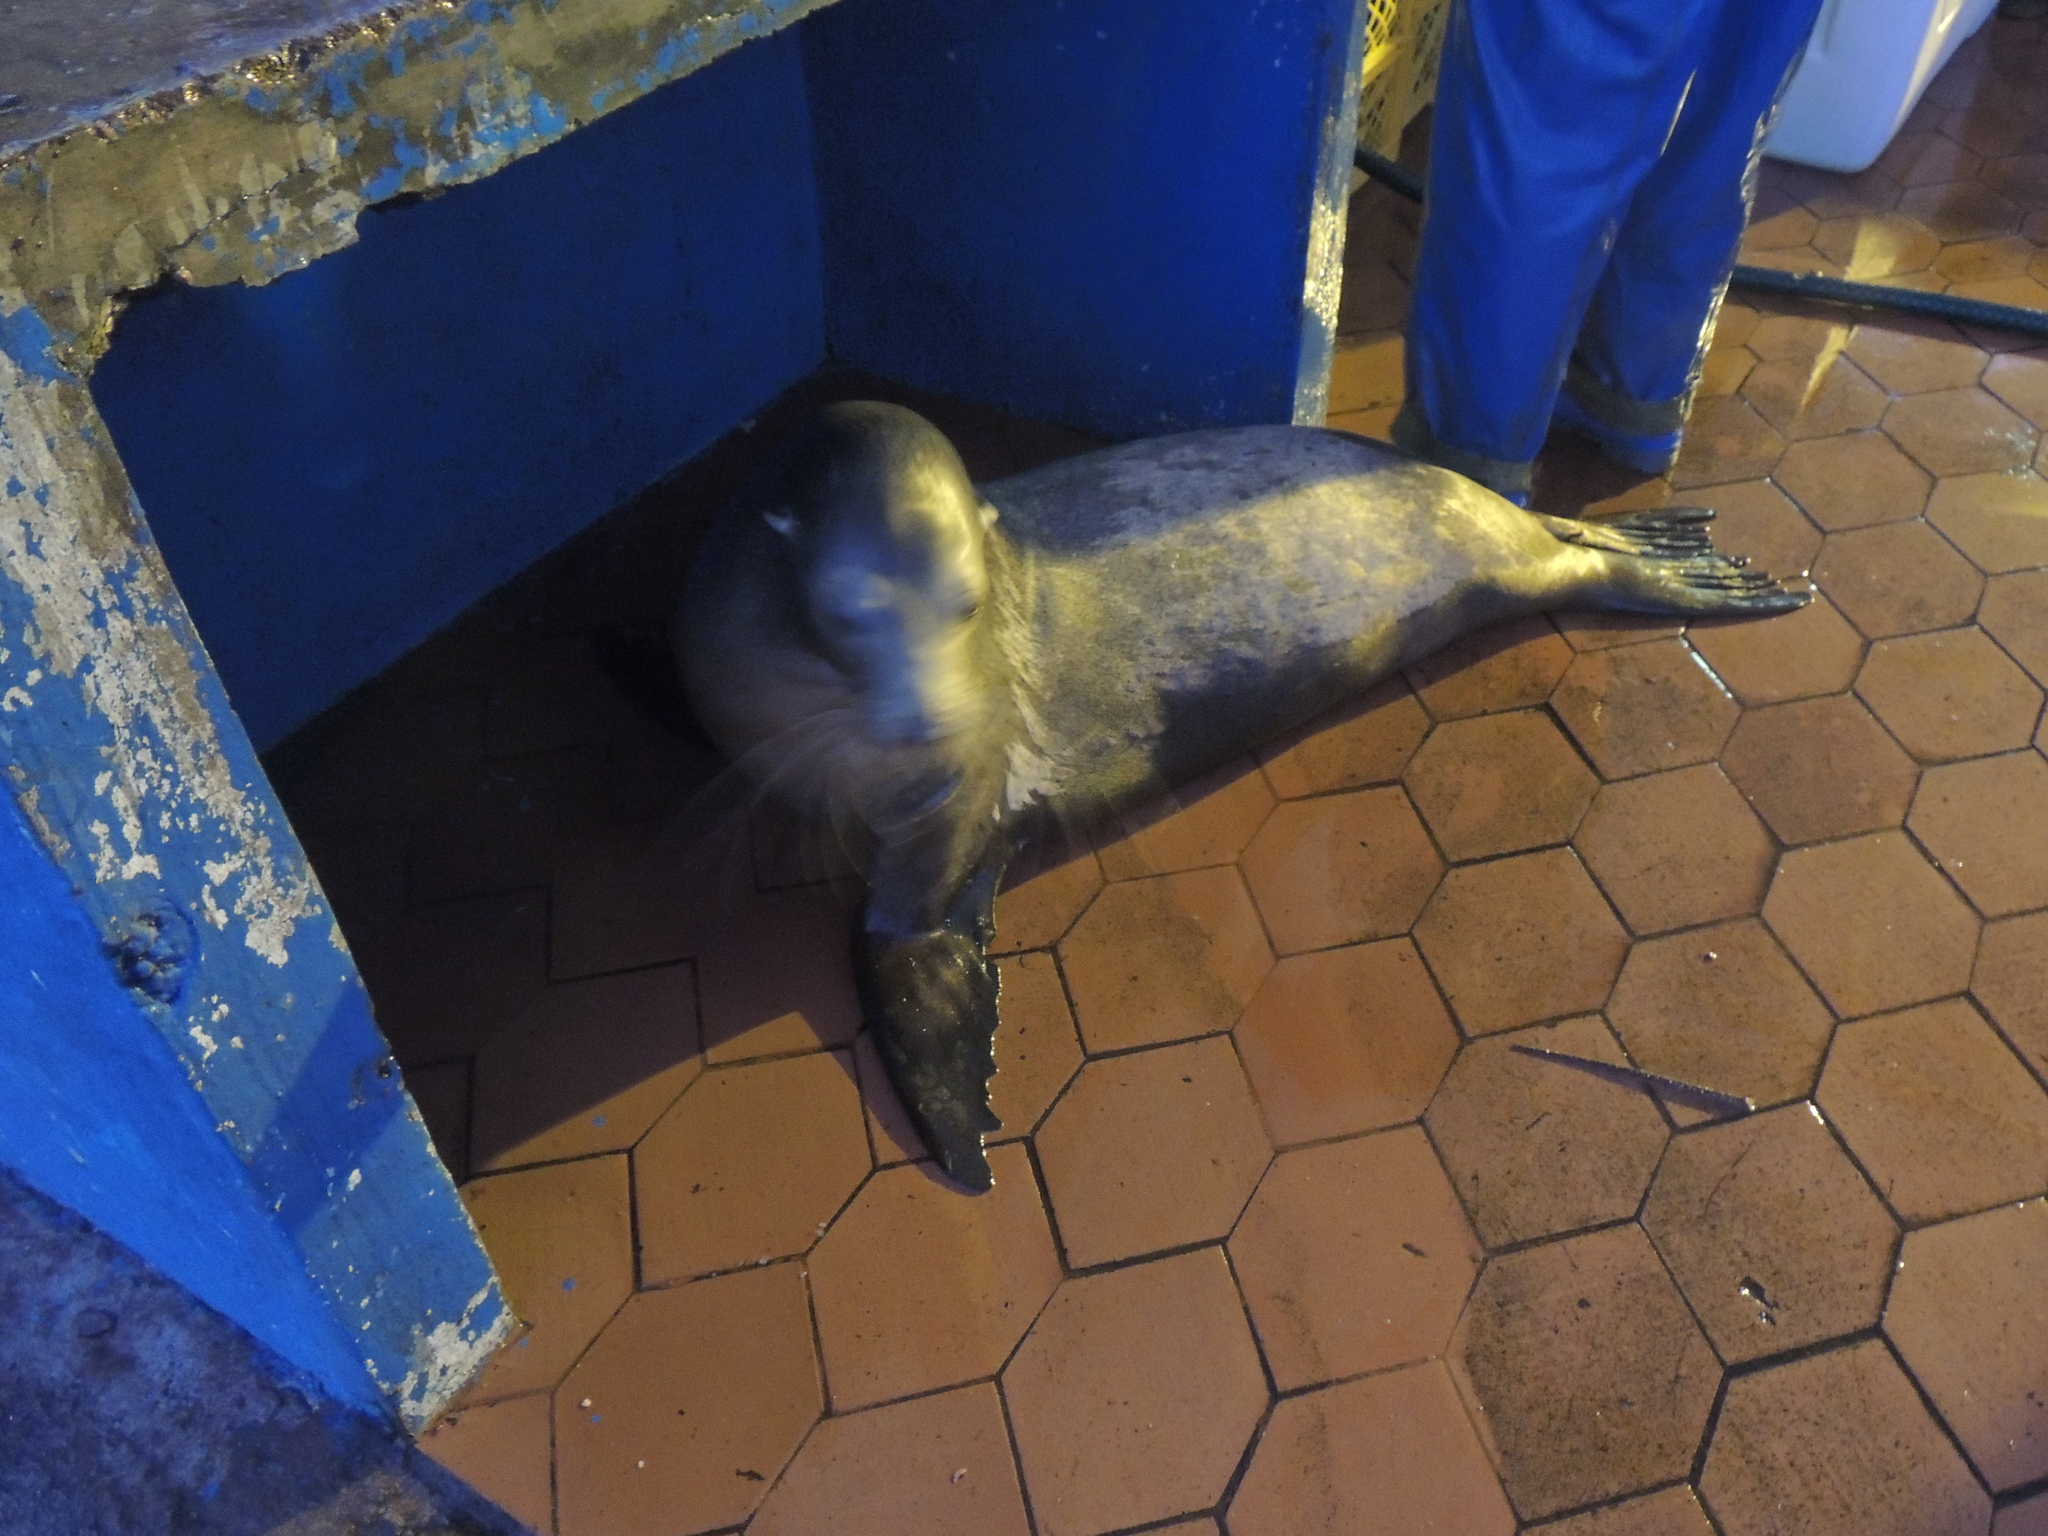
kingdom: Animalia
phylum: Chordata
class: Mammalia
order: Carnivora
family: Otariidae
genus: Zalophus
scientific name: Zalophus wollebaeki
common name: Galapagos sea lion
